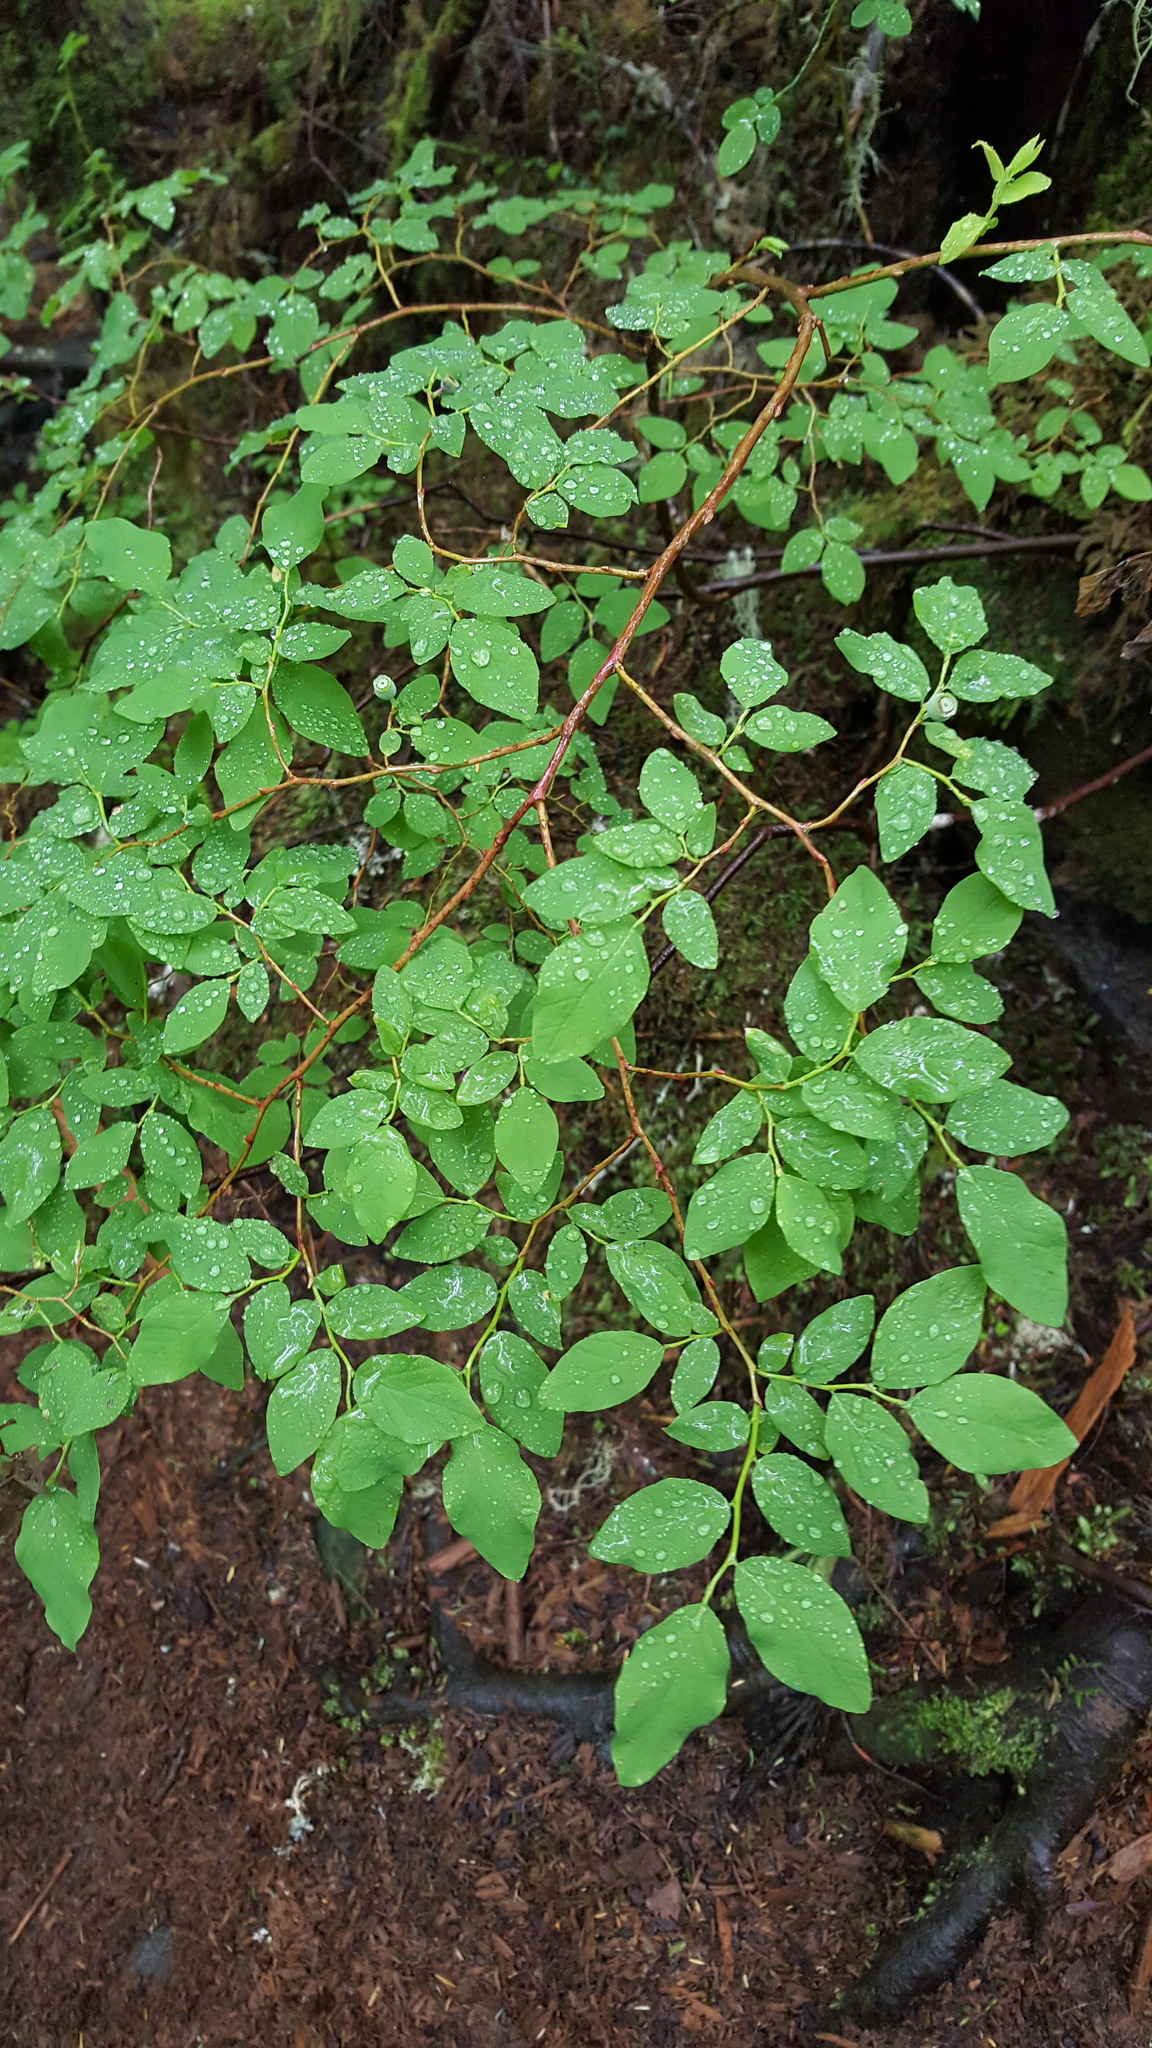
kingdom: Plantae
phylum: Tracheophyta
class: Magnoliopsida
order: Ericales
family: Ericaceae
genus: Vaccinium
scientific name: Vaccinium ovalifolium
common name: Early blueberry
